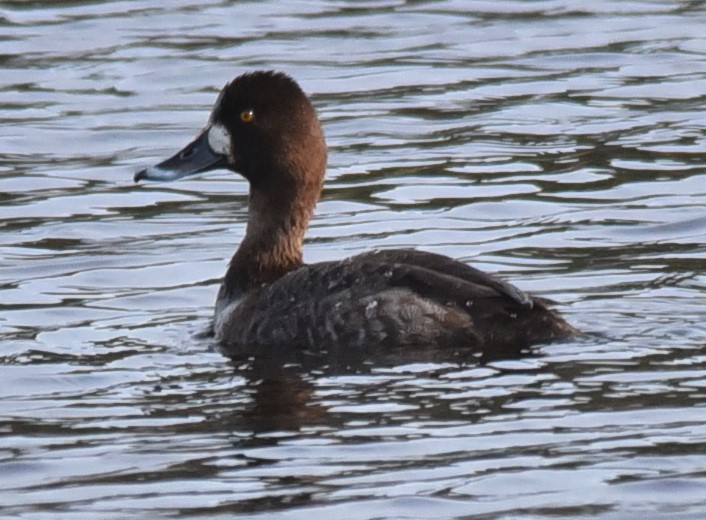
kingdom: Animalia
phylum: Chordata
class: Aves
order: Anseriformes
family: Anatidae
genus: Aythya
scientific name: Aythya affinis
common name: Lesser scaup
